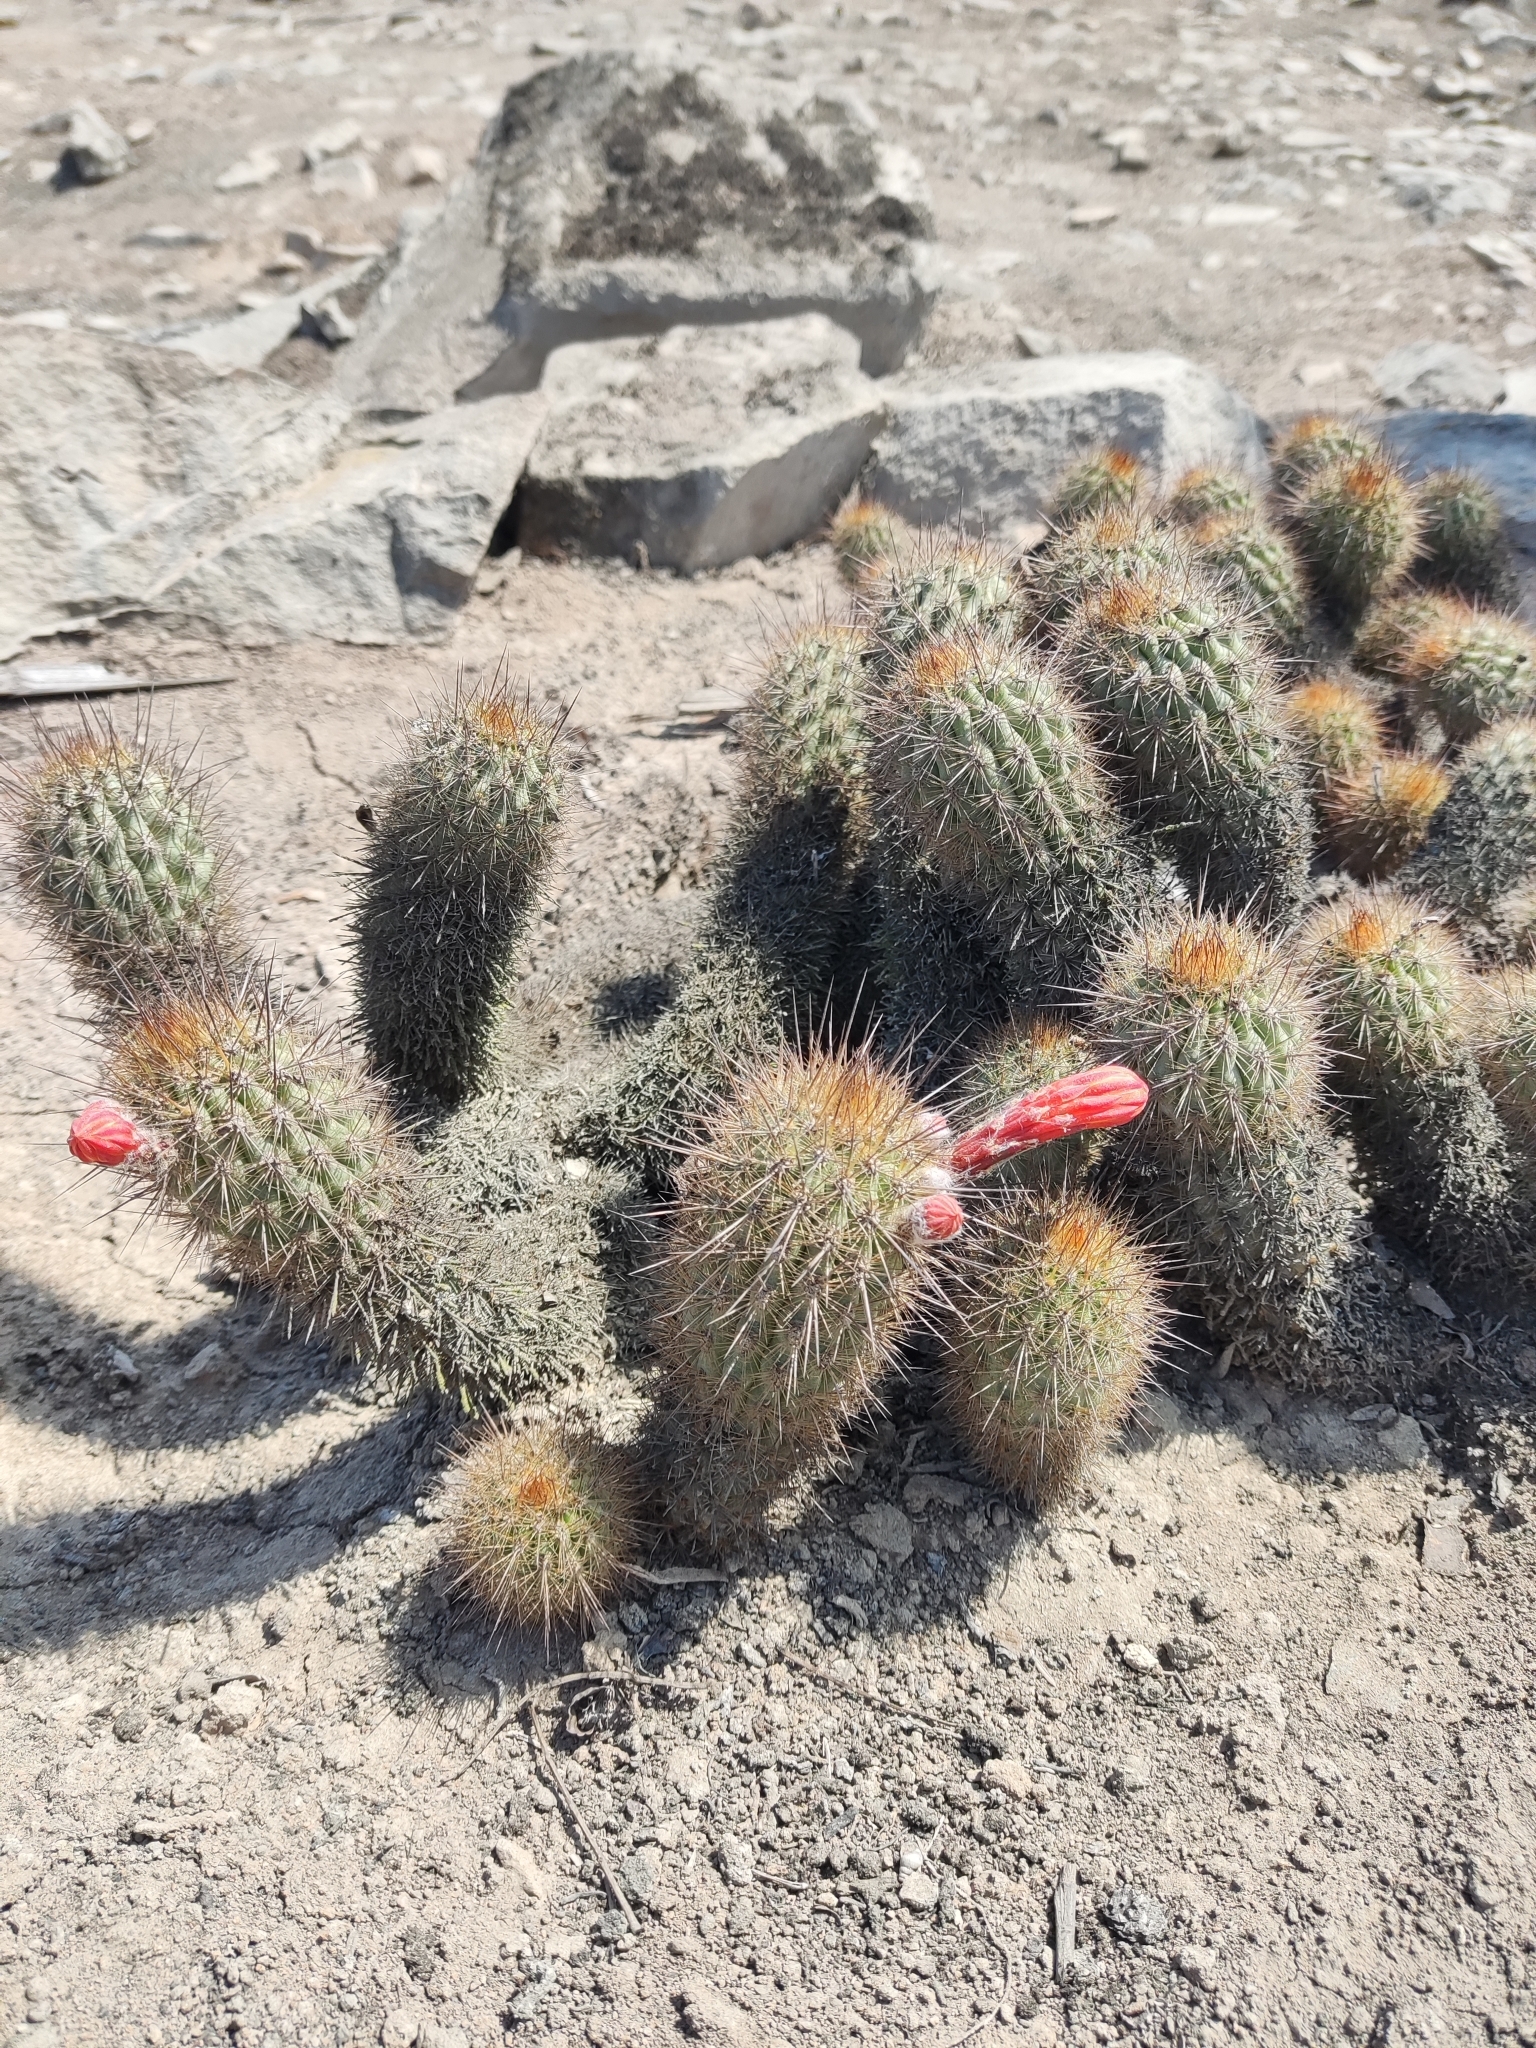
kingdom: Plantae
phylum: Tracheophyta
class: Magnoliopsida
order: Caryophyllales
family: Cactaceae
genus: Borzicactus
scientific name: Borzicactus acanthurus
